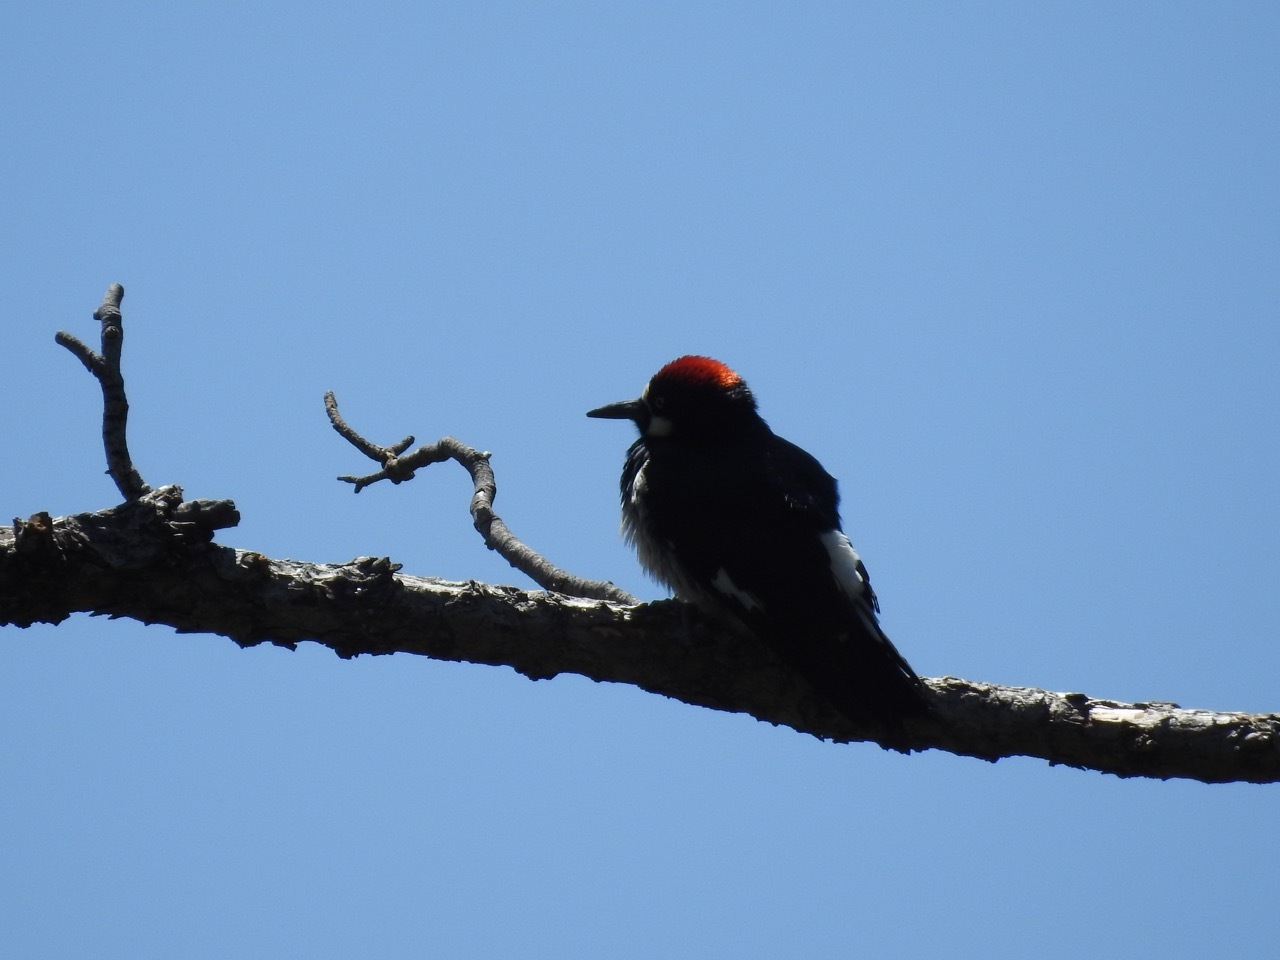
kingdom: Animalia
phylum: Chordata
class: Aves
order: Piciformes
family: Picidae
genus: Melanerpes
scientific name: Melanerpes formicivorus
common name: Acorn woodpecker
